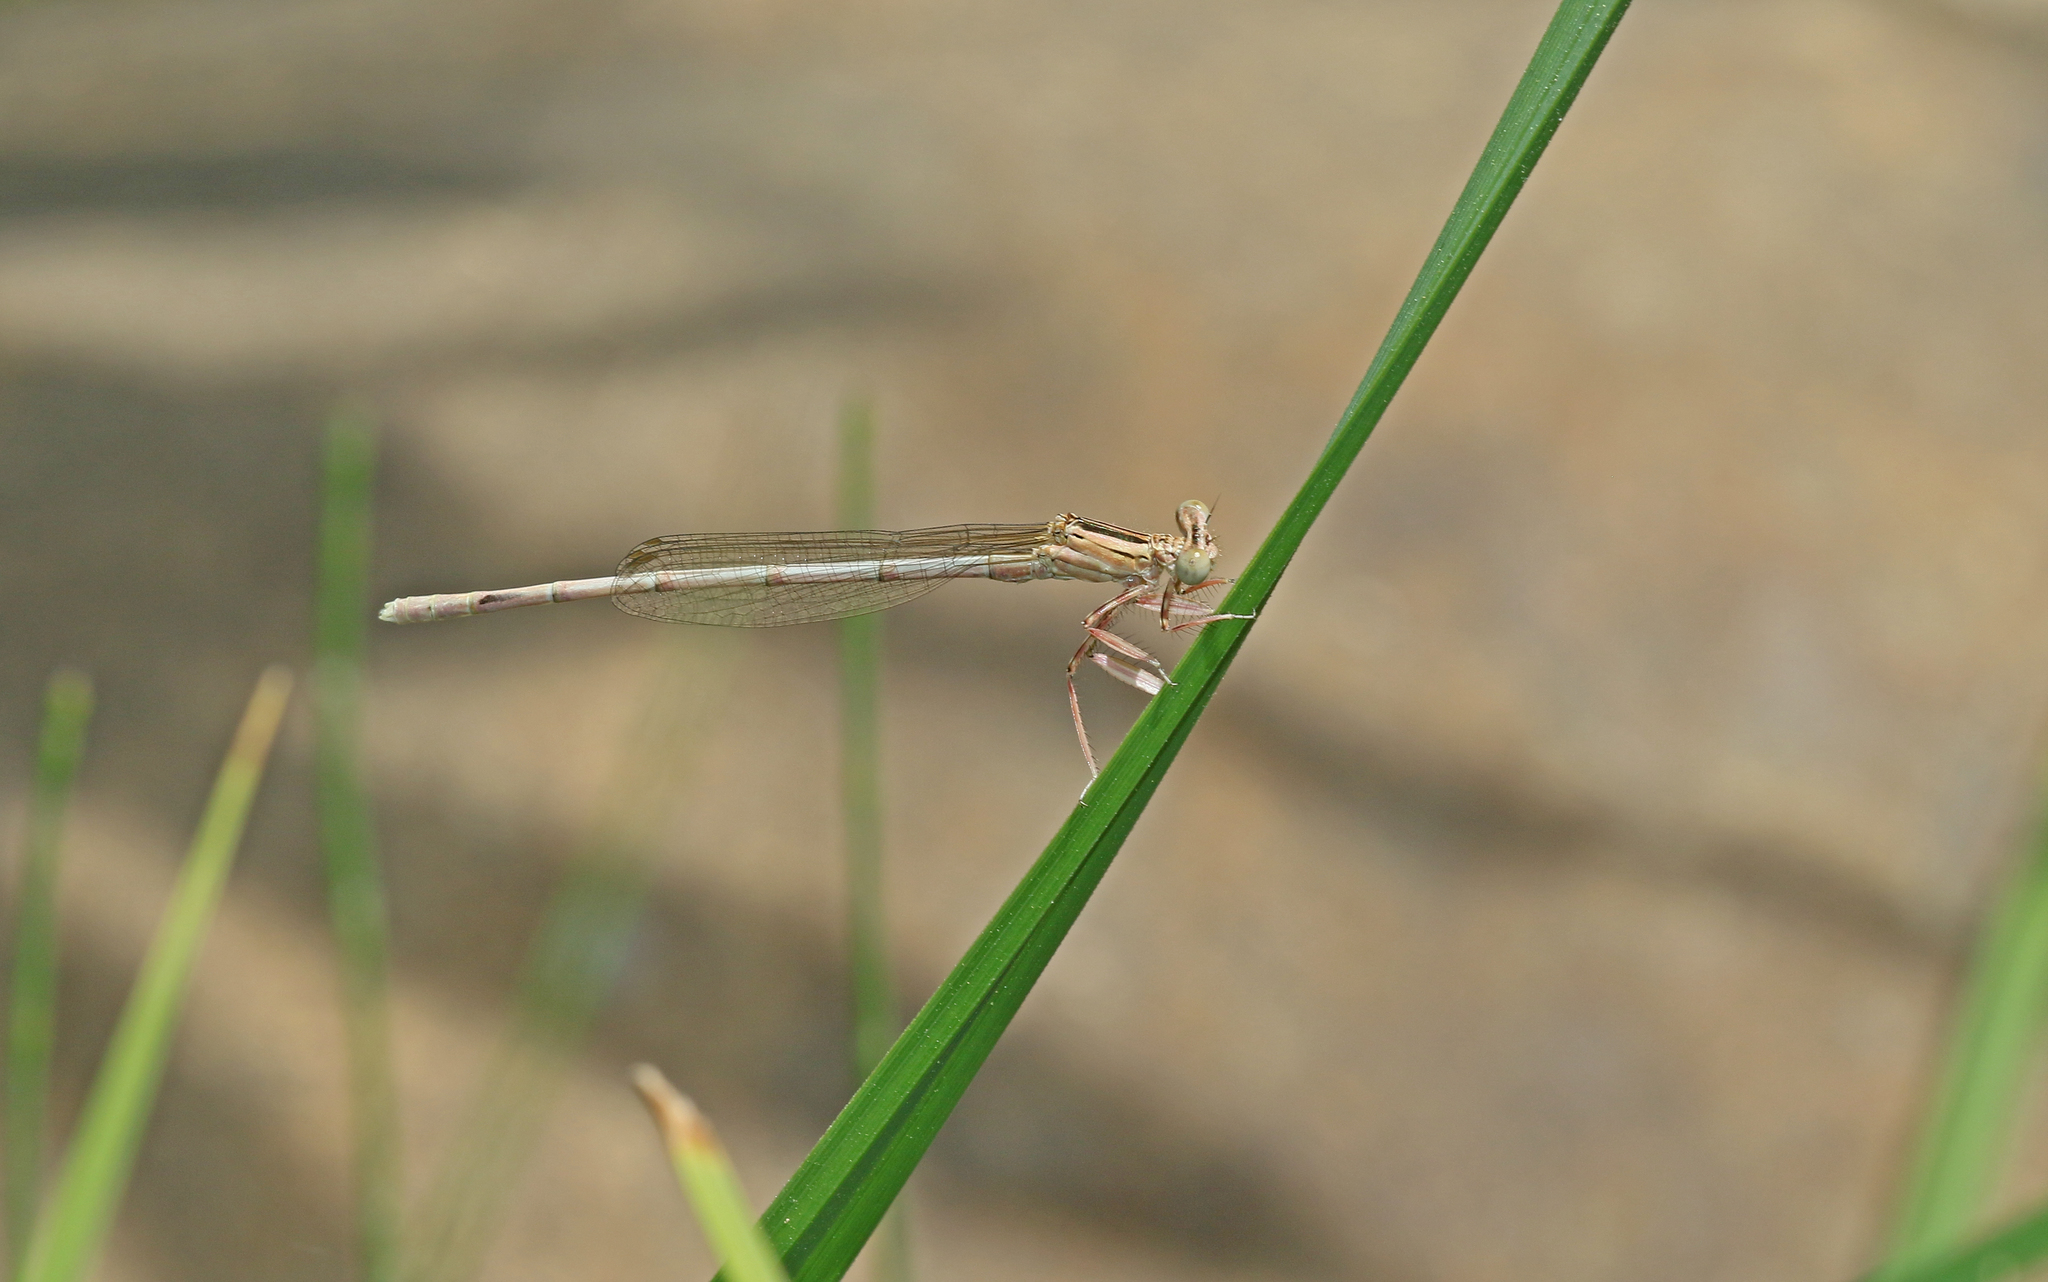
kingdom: Animalia
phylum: Arthropoda
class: Insecta
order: Odonata
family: Platycnemididae
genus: Platycnemis
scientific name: Platycnemis latipes
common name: White featherleg
